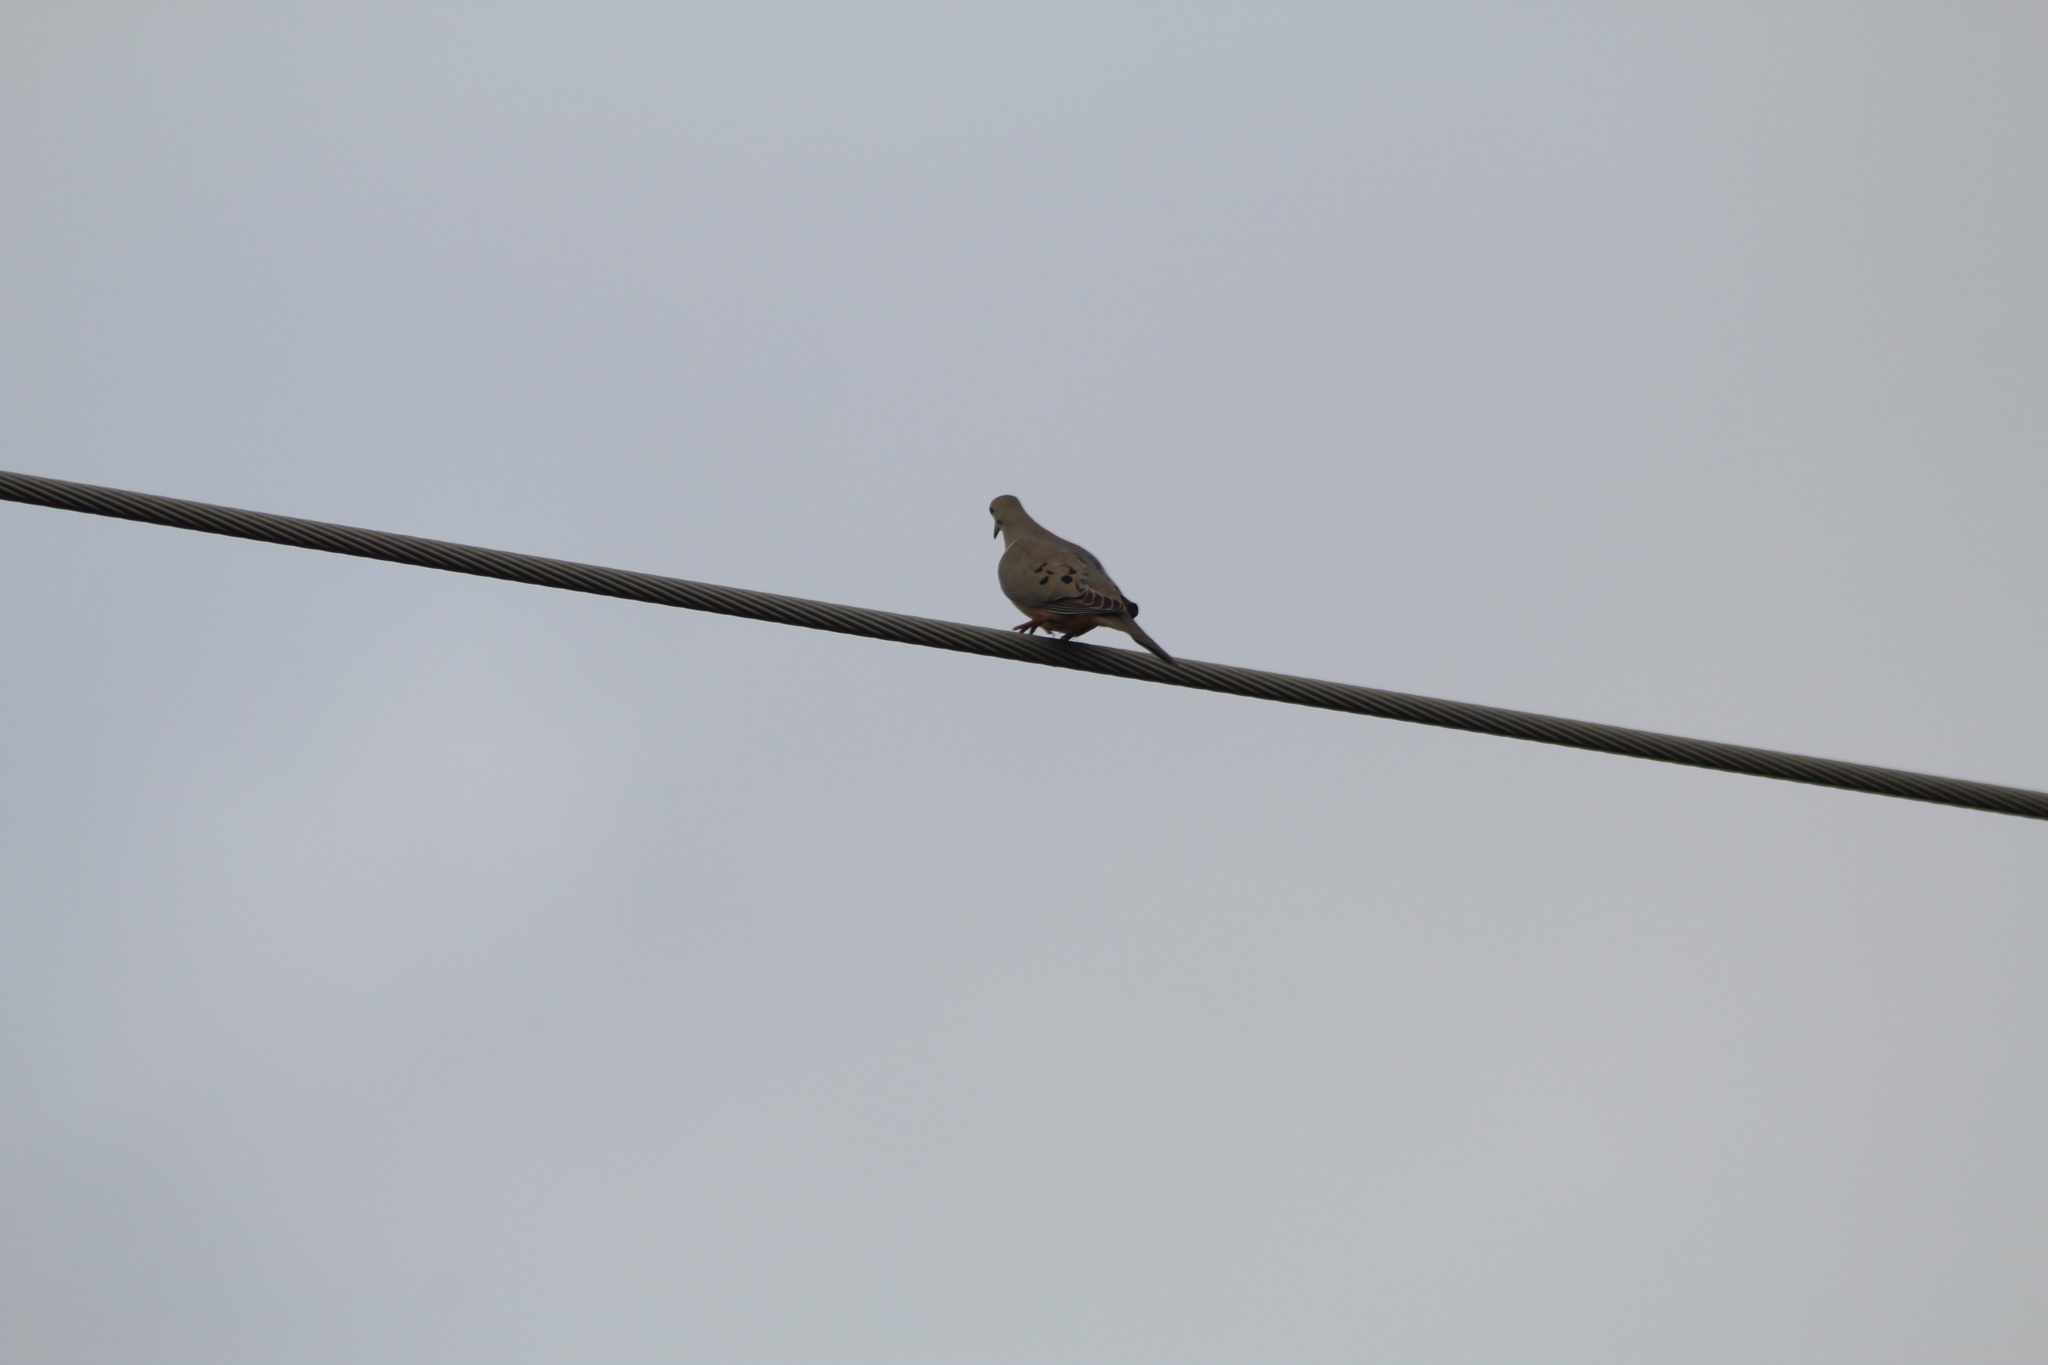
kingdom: Animalia
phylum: Chordata
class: Aves
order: Columbiformes
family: Columbidae
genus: Zenaida
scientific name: Zenaida macroura
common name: Mourning dove
